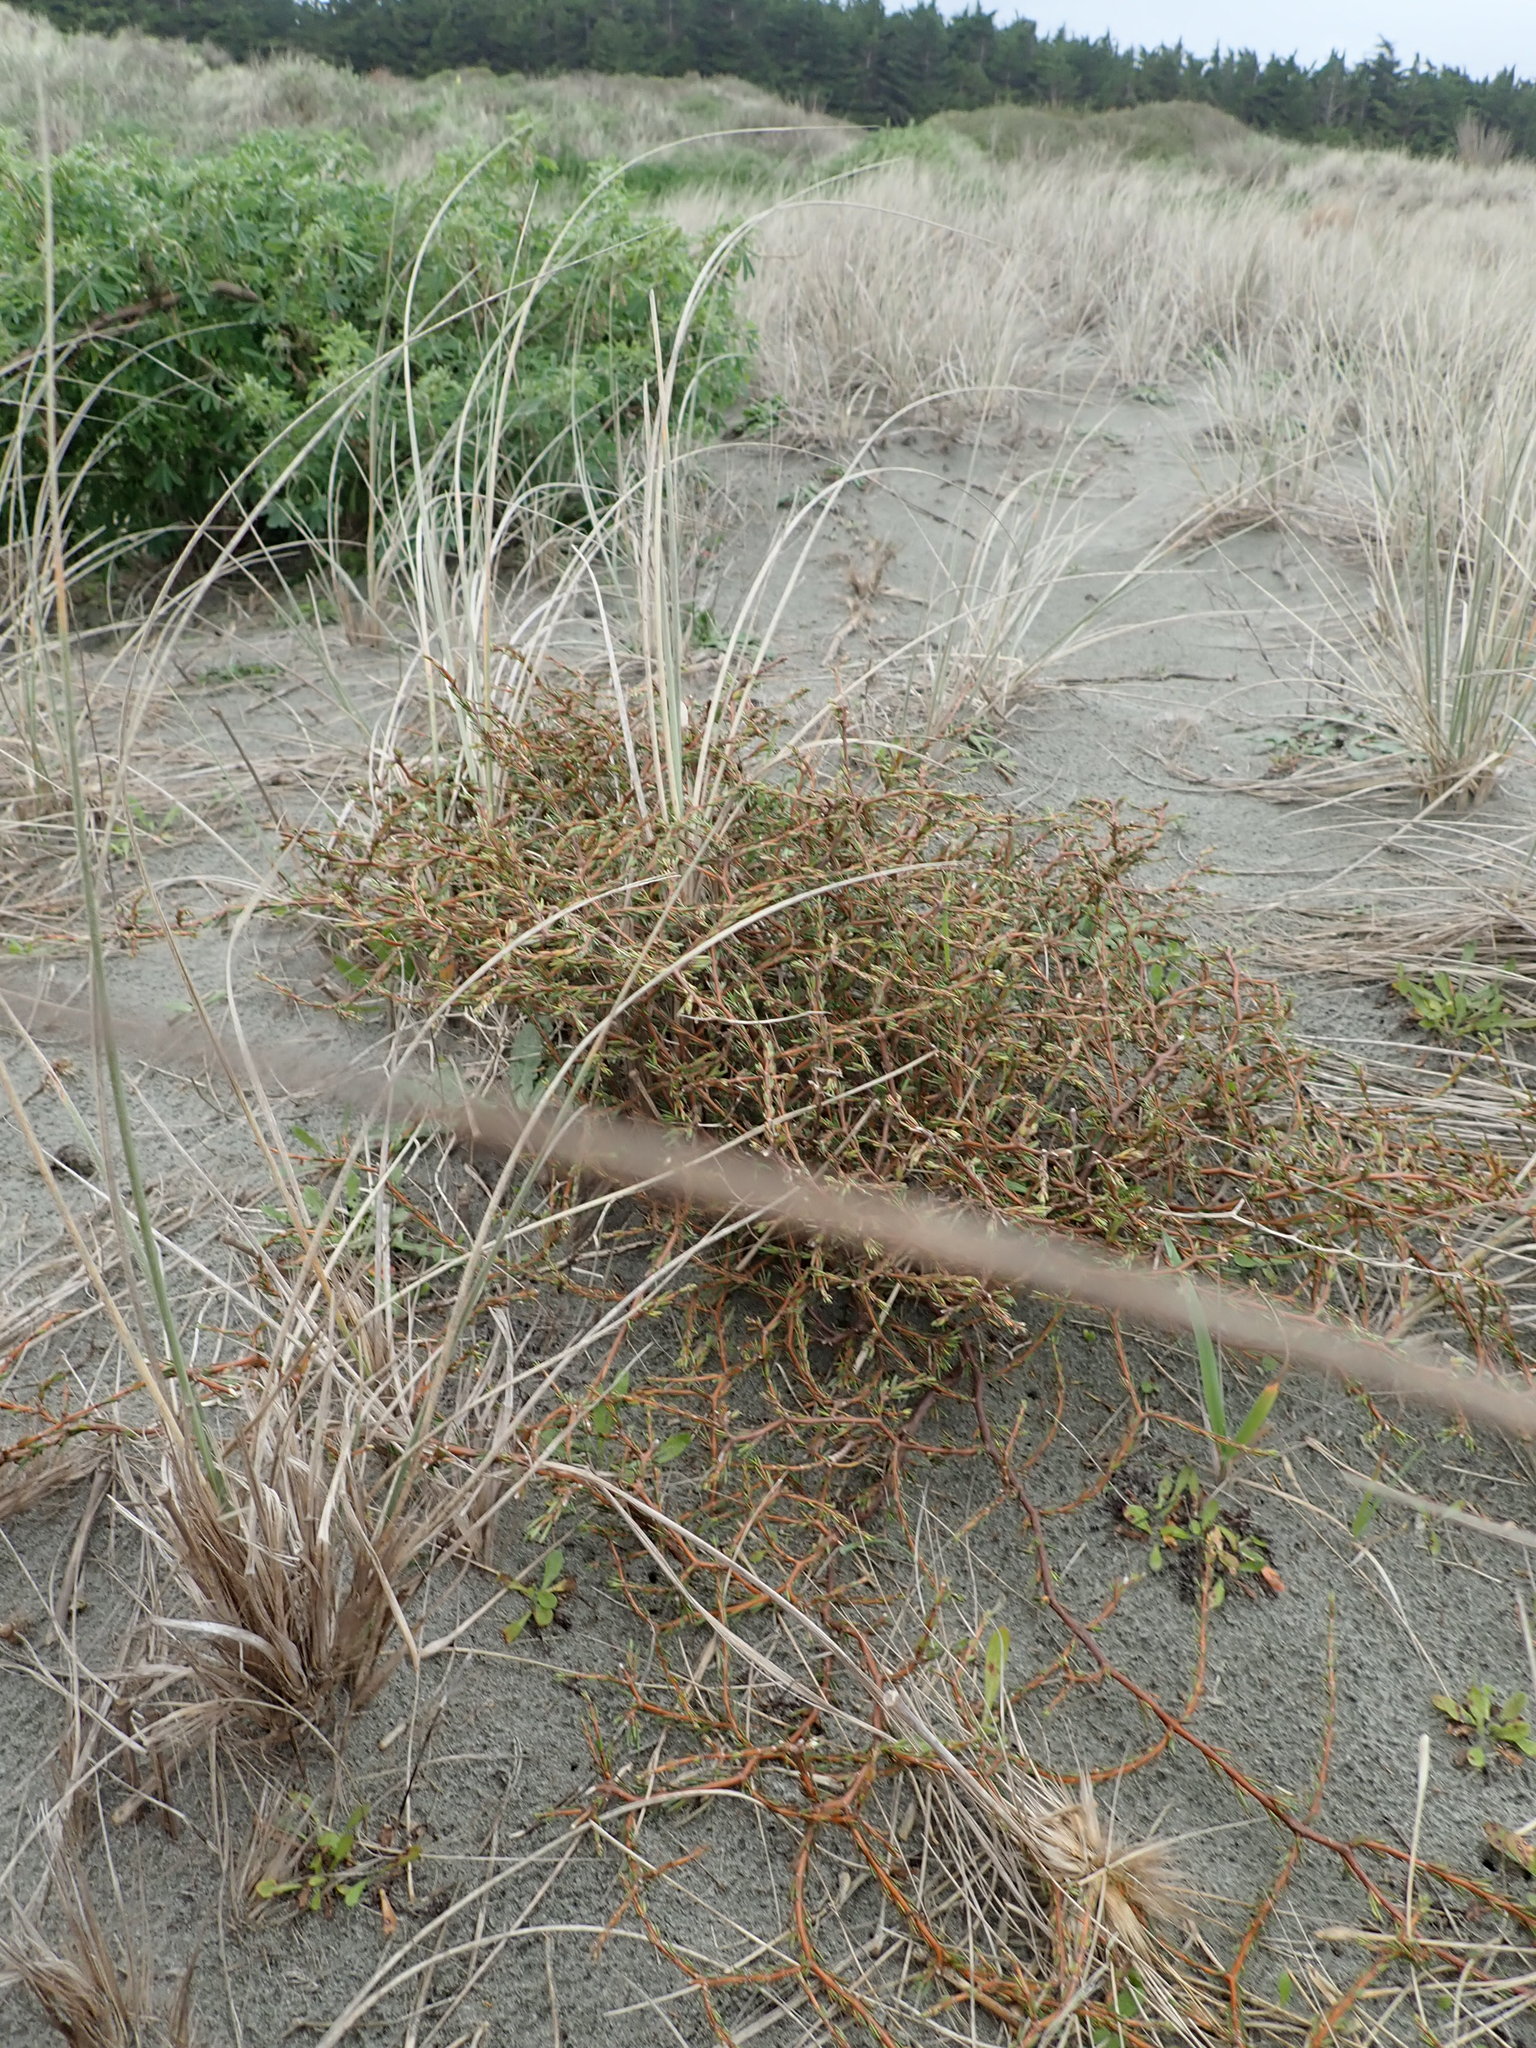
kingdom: Plantae
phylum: Tracheophyta
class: Magnoliopsida
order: Gentianales
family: Rubiaceae
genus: Coprosma
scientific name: Coprosma acerosa
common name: Sand coprosma
